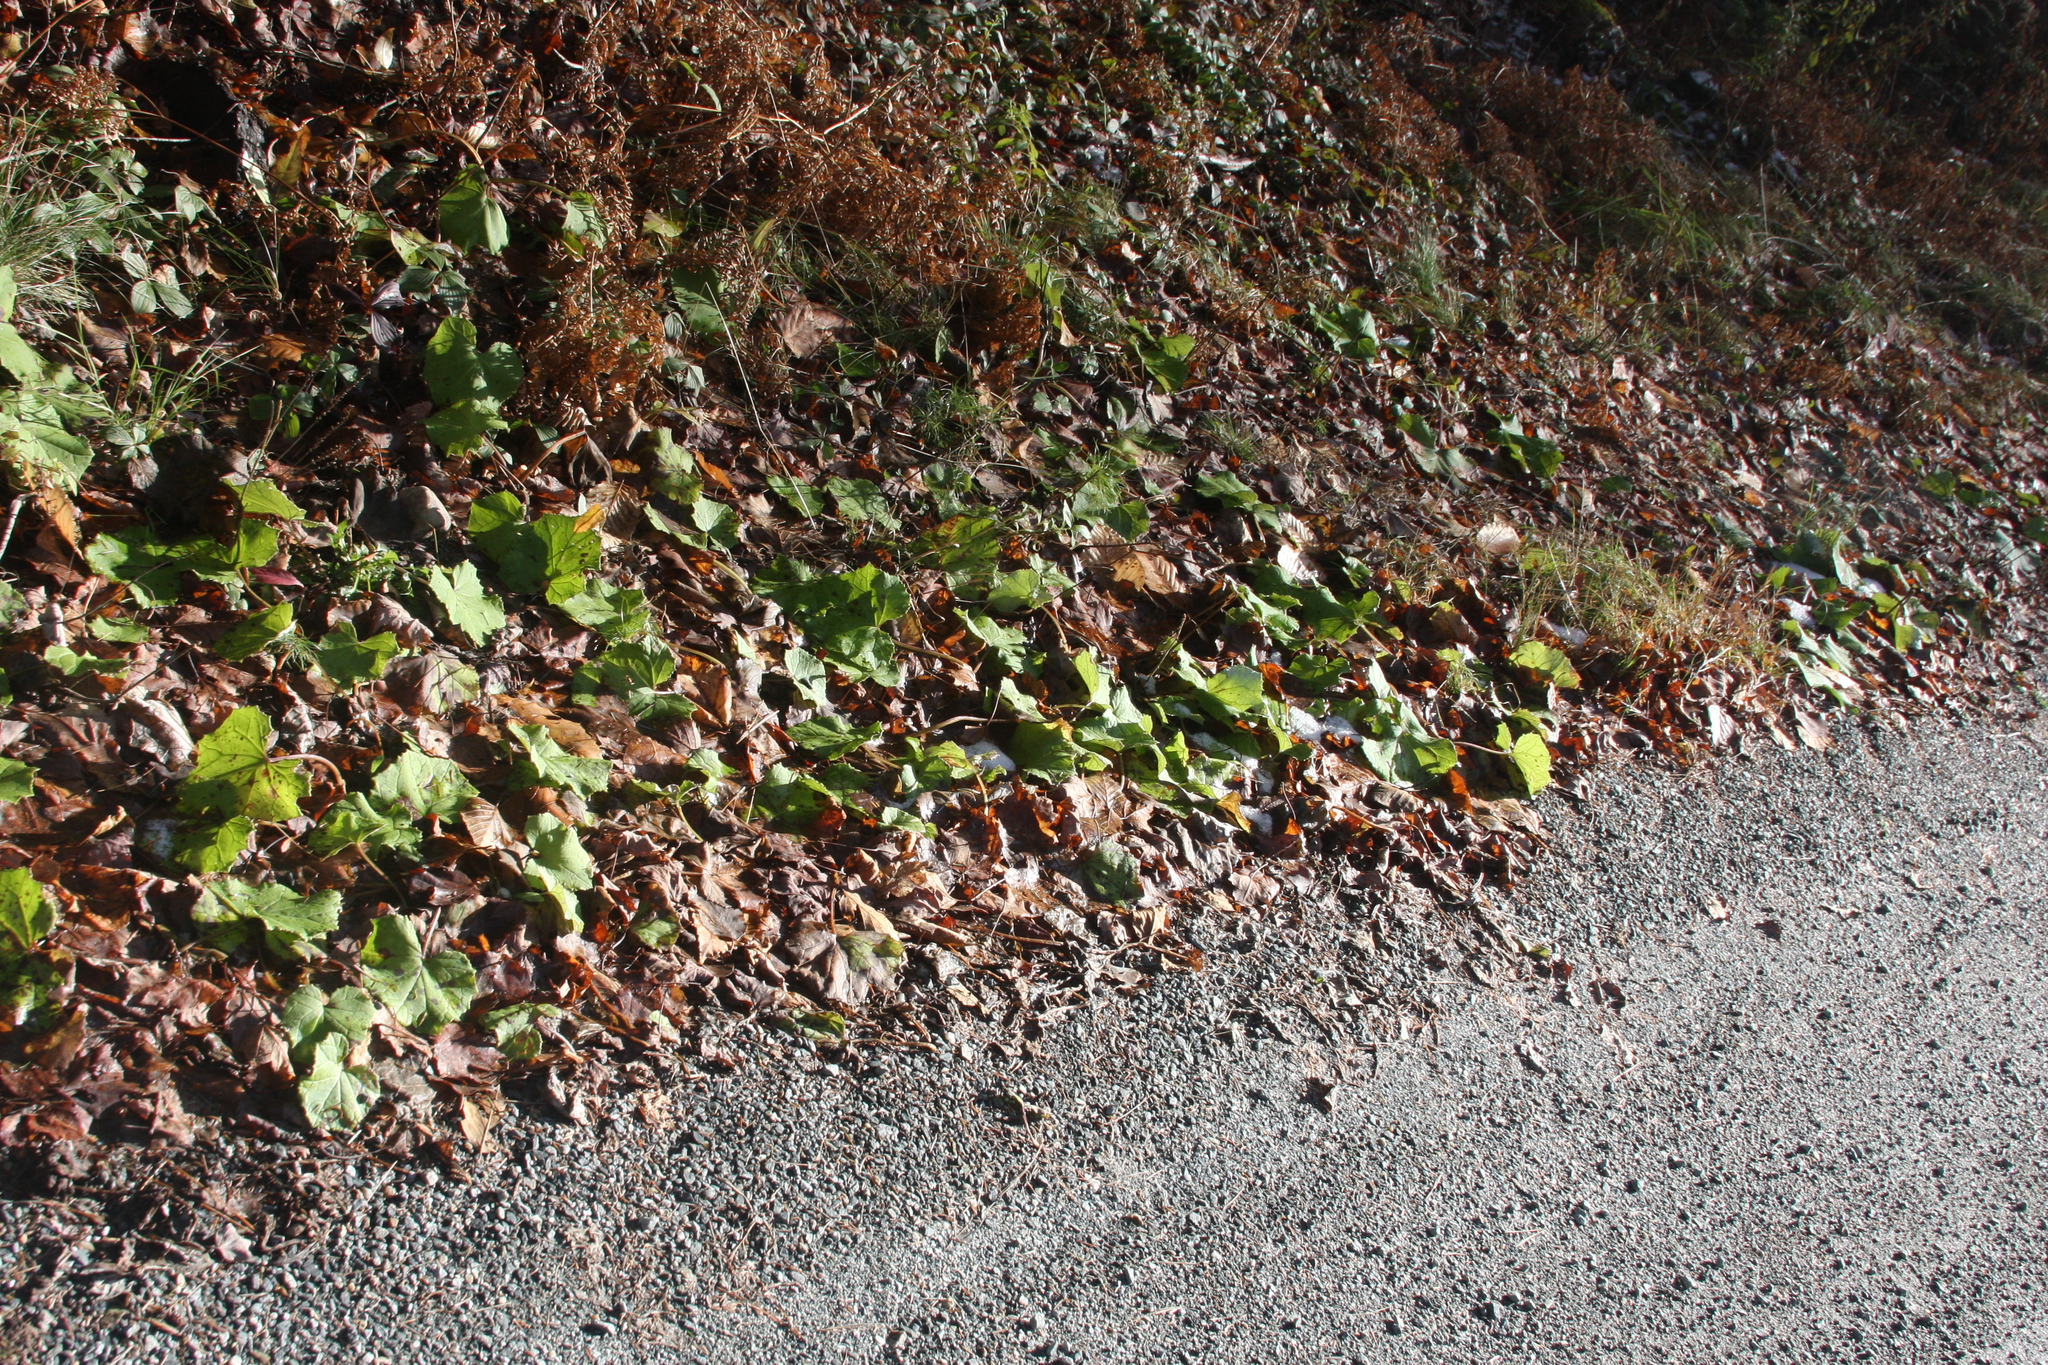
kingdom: Plantae
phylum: Tracheophyta
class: Magnoliopsida
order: Asterales
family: Asteraceae
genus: Tussilago
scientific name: Tussilago farfara
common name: Coltsfoot
